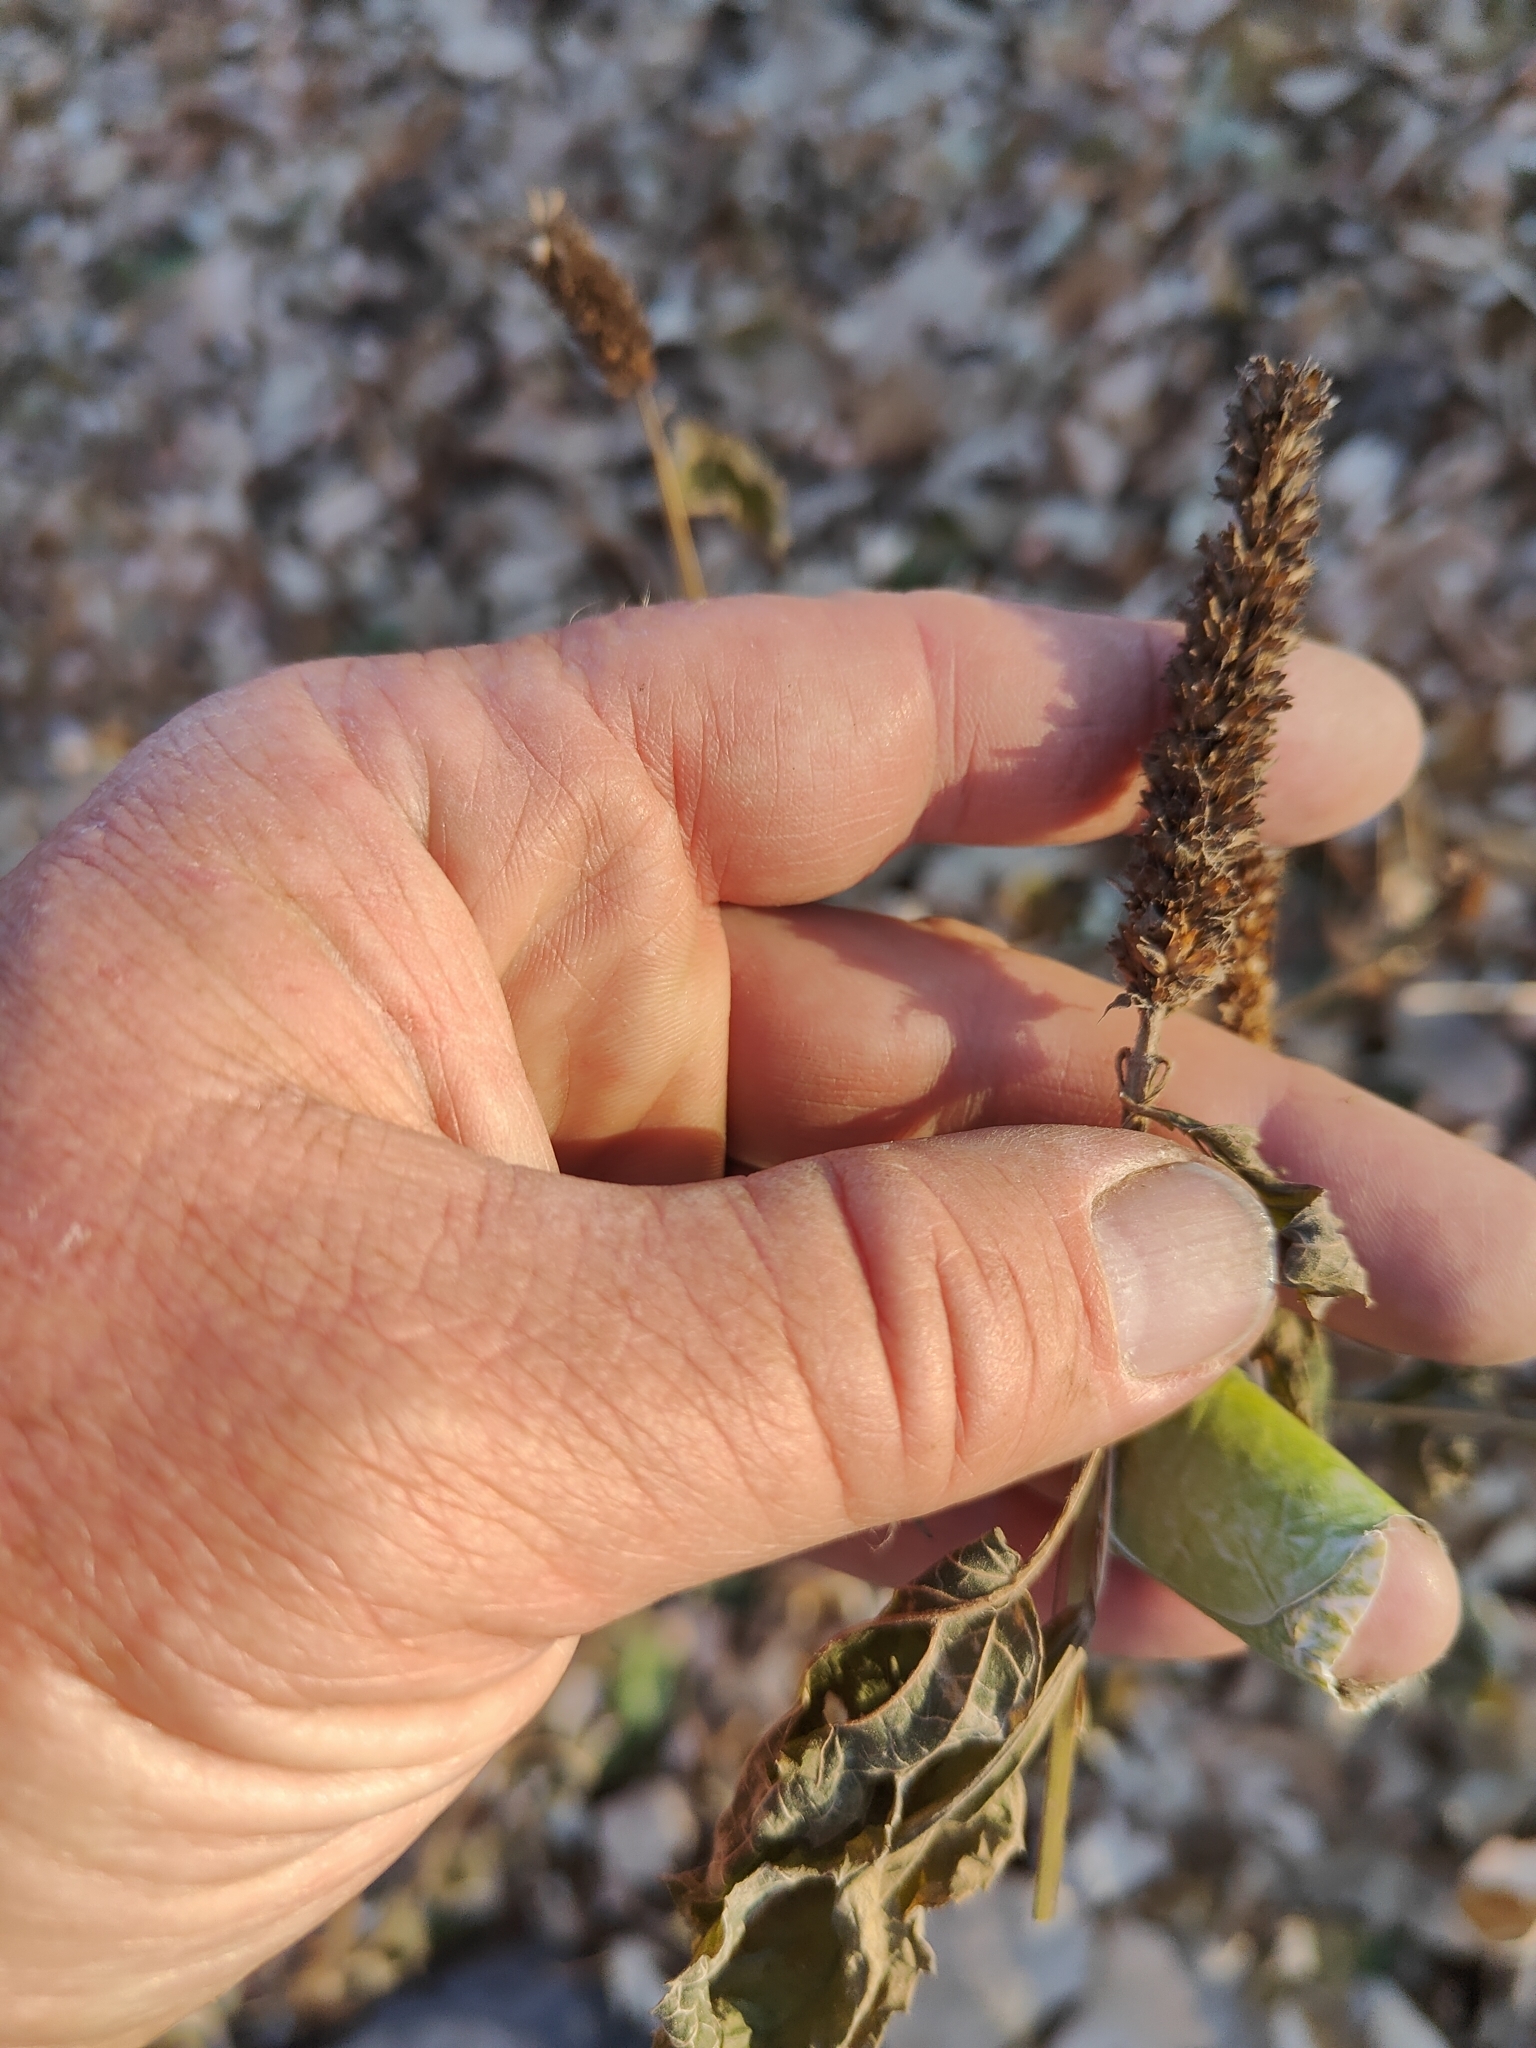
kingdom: Plantae
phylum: Tracheophyta
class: Magnoliopsida
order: Lamiales
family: Lamiaceae
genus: Agastache
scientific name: Agastache nepetoides
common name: Catnip giant hyssop
